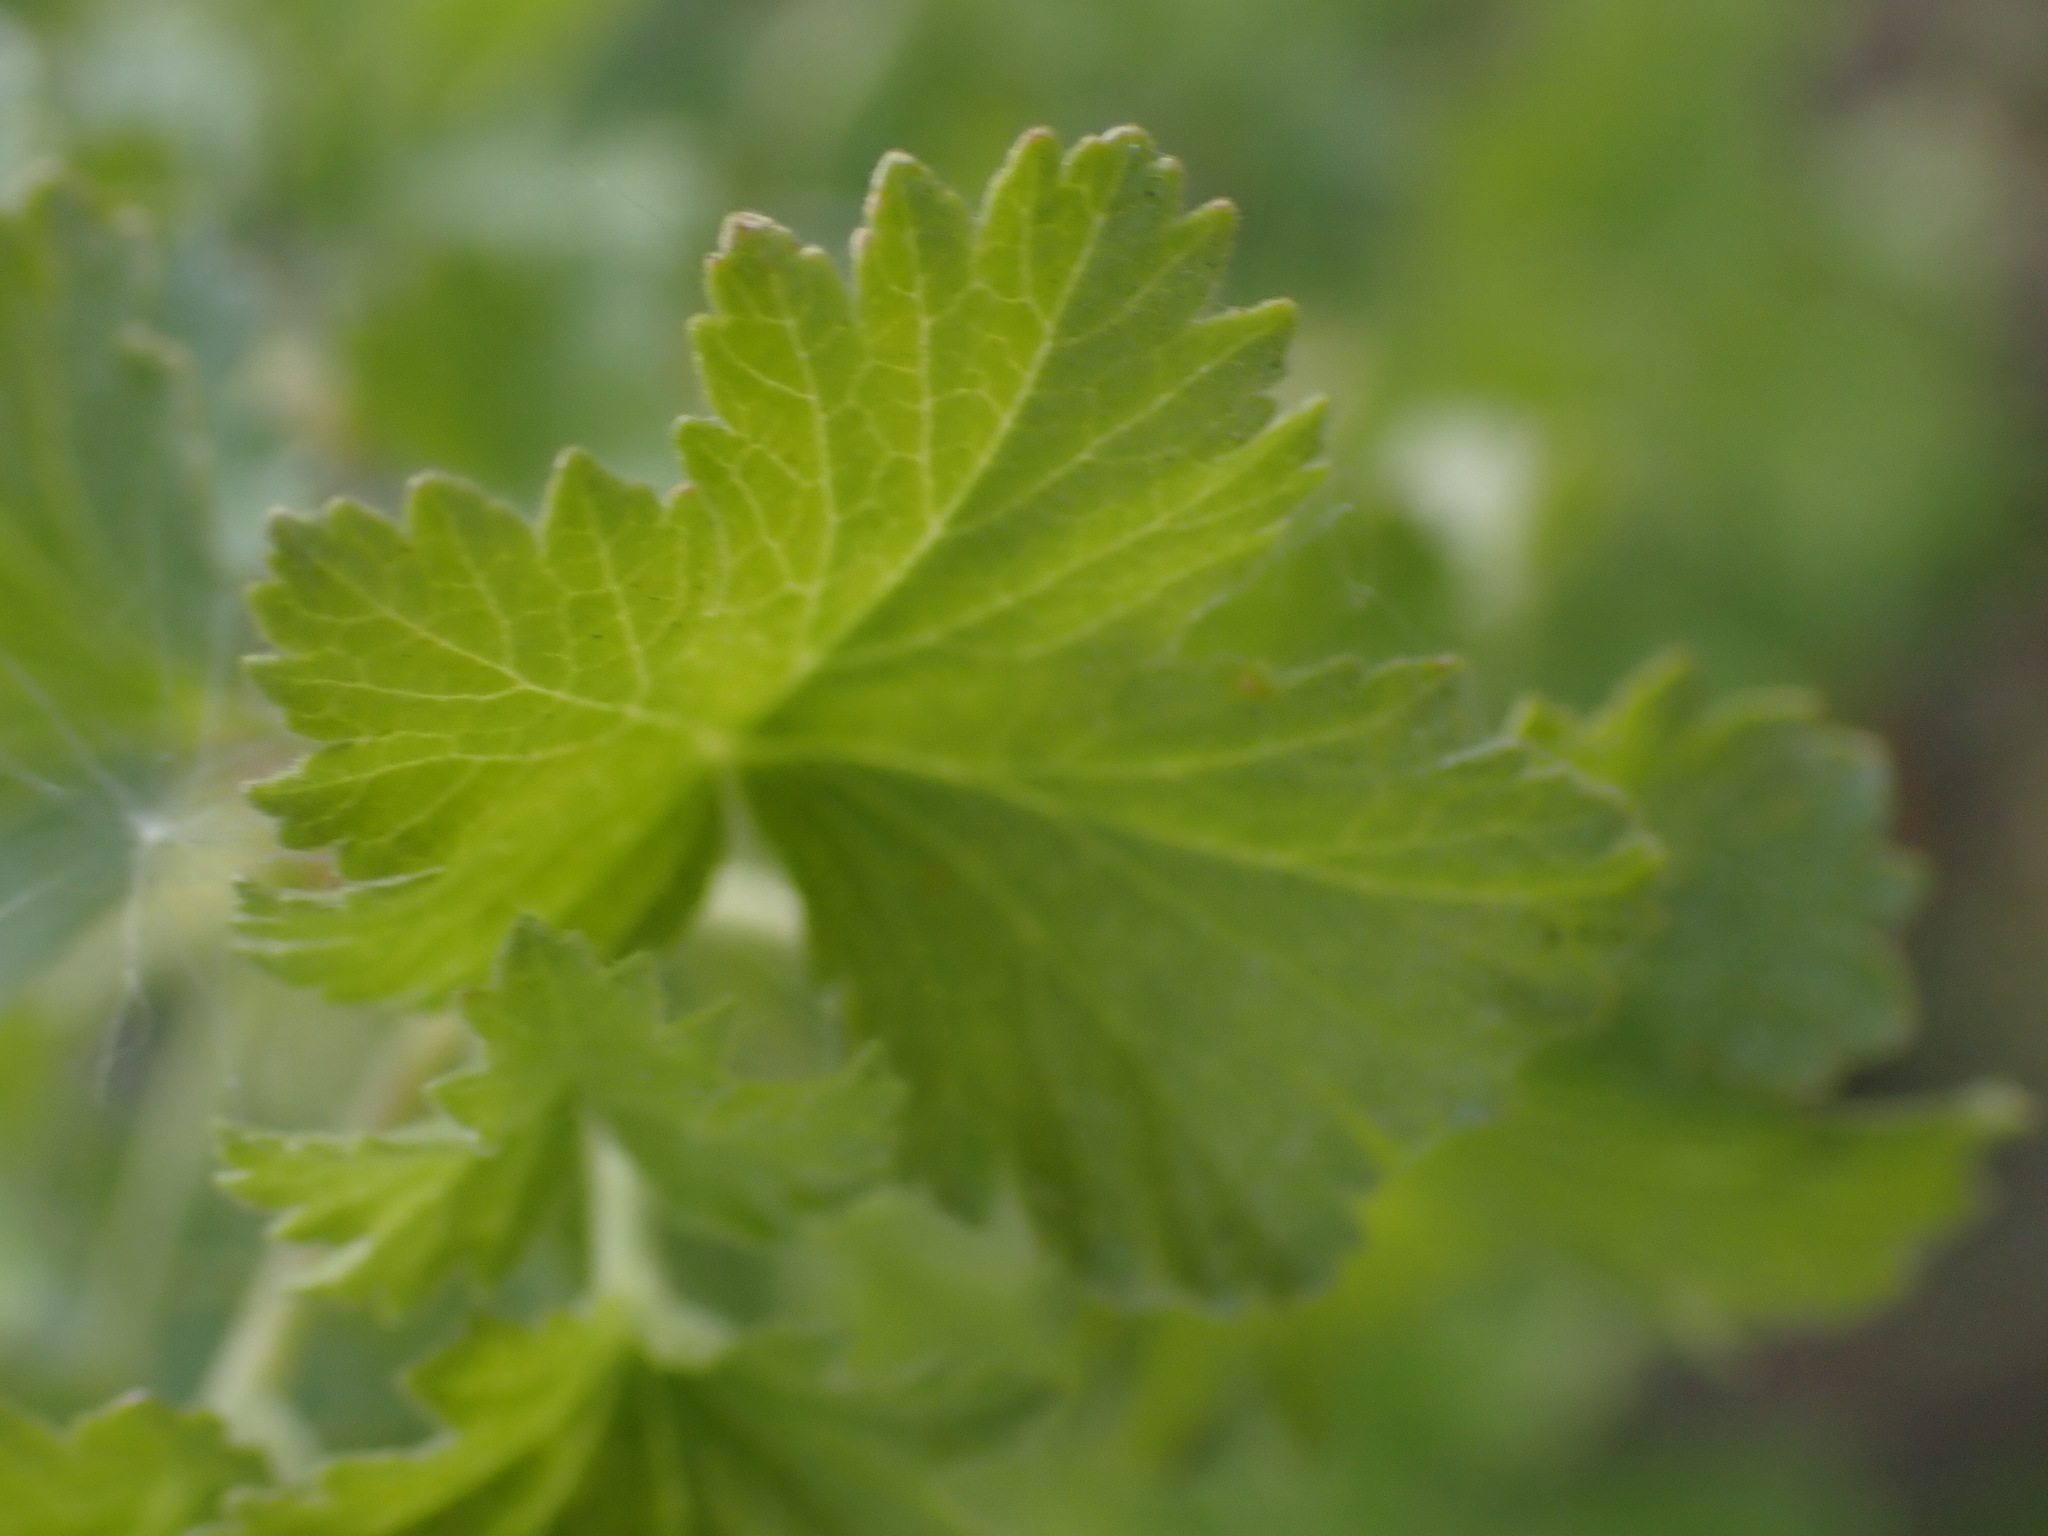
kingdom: Plantae
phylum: Tracheophyta
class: Magnoliopsida
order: Saxifragales
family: Grossulariaceae
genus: Ribes
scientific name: Ribes cereum
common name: Wax currant
